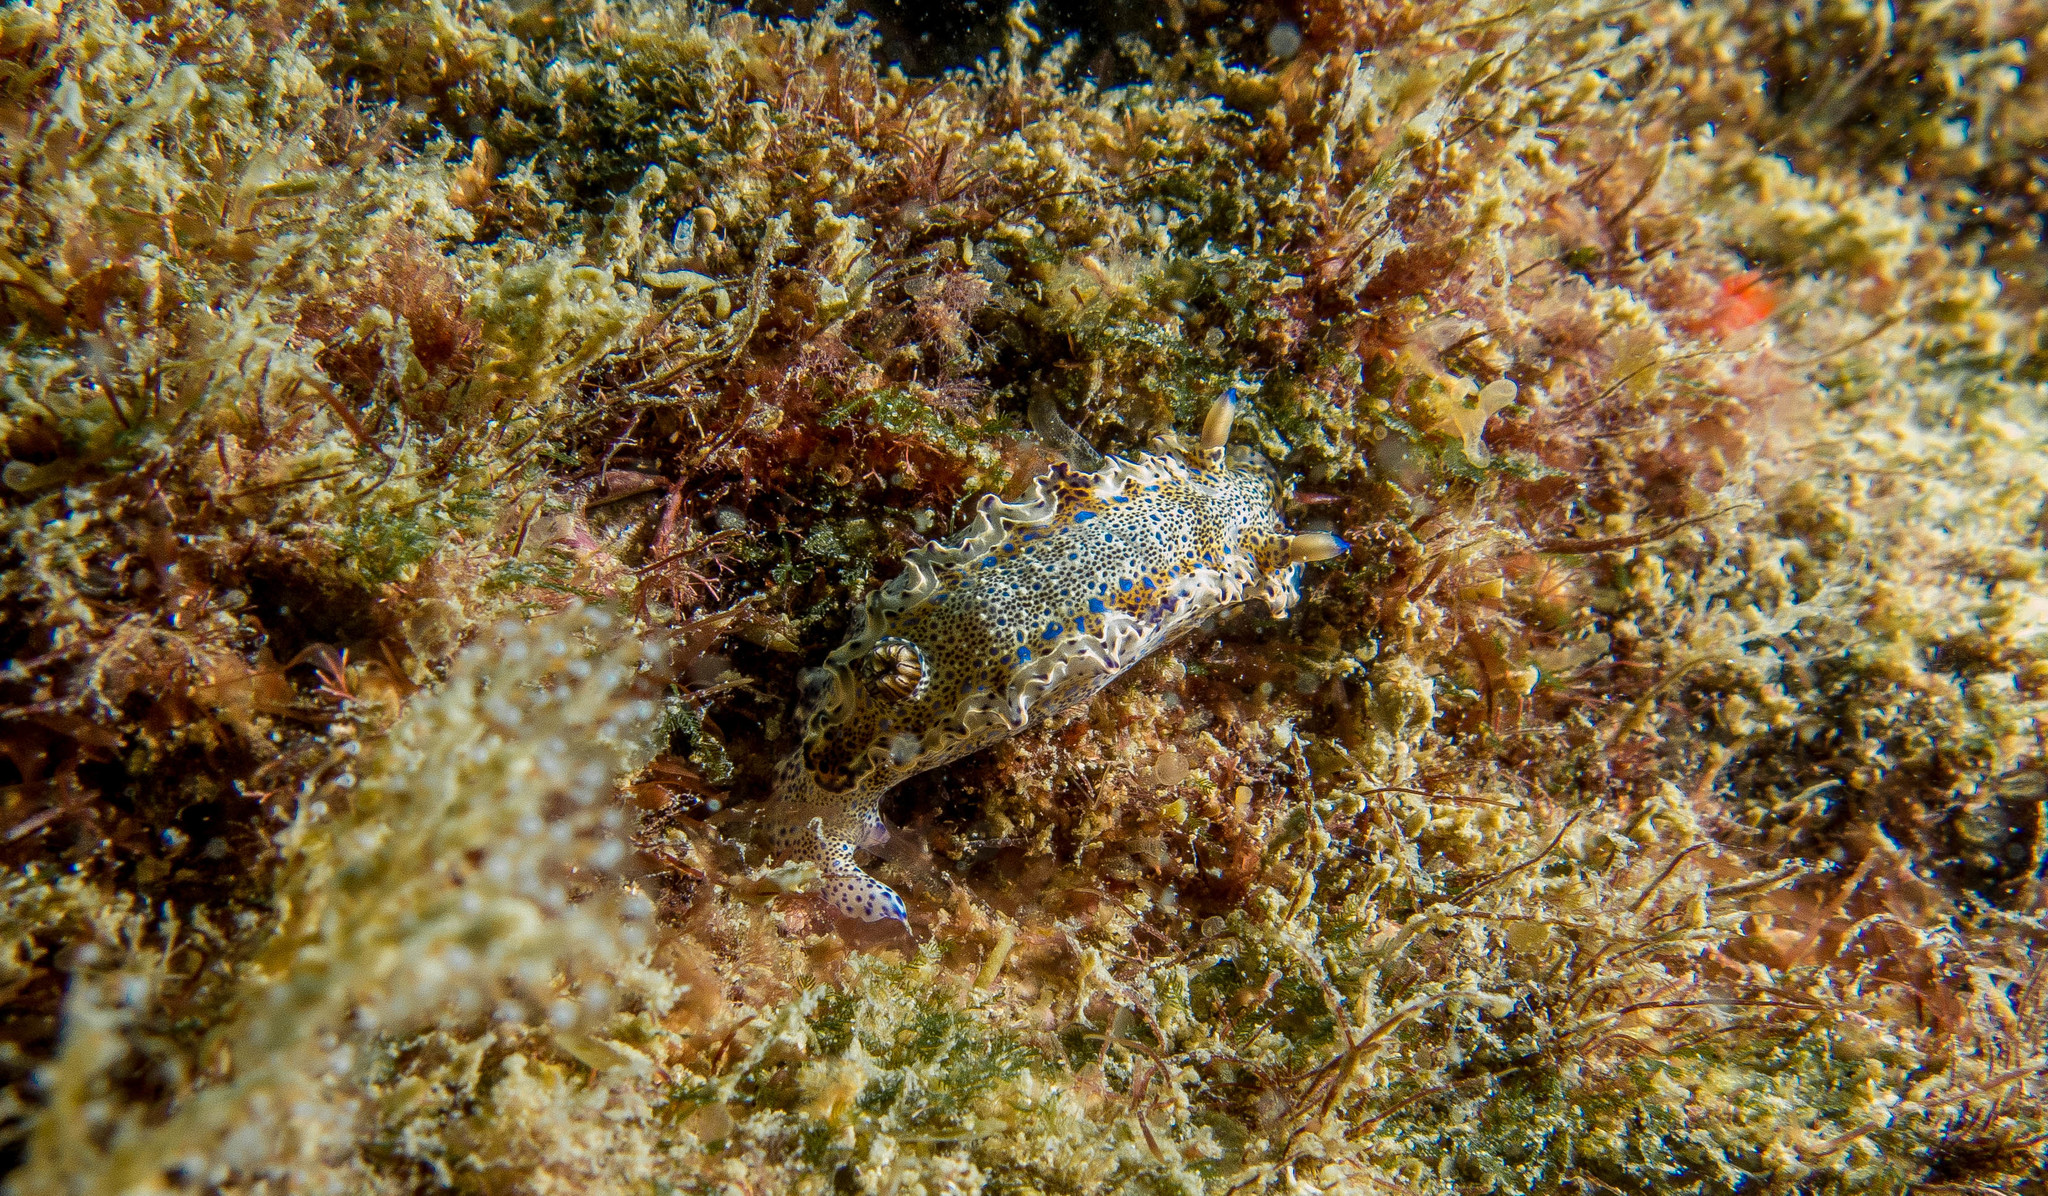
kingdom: Animalia
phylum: Mollusca
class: Gastropoda
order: Nudibranchia
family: Chromodorididae
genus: Felimare
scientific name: Felimare marci
